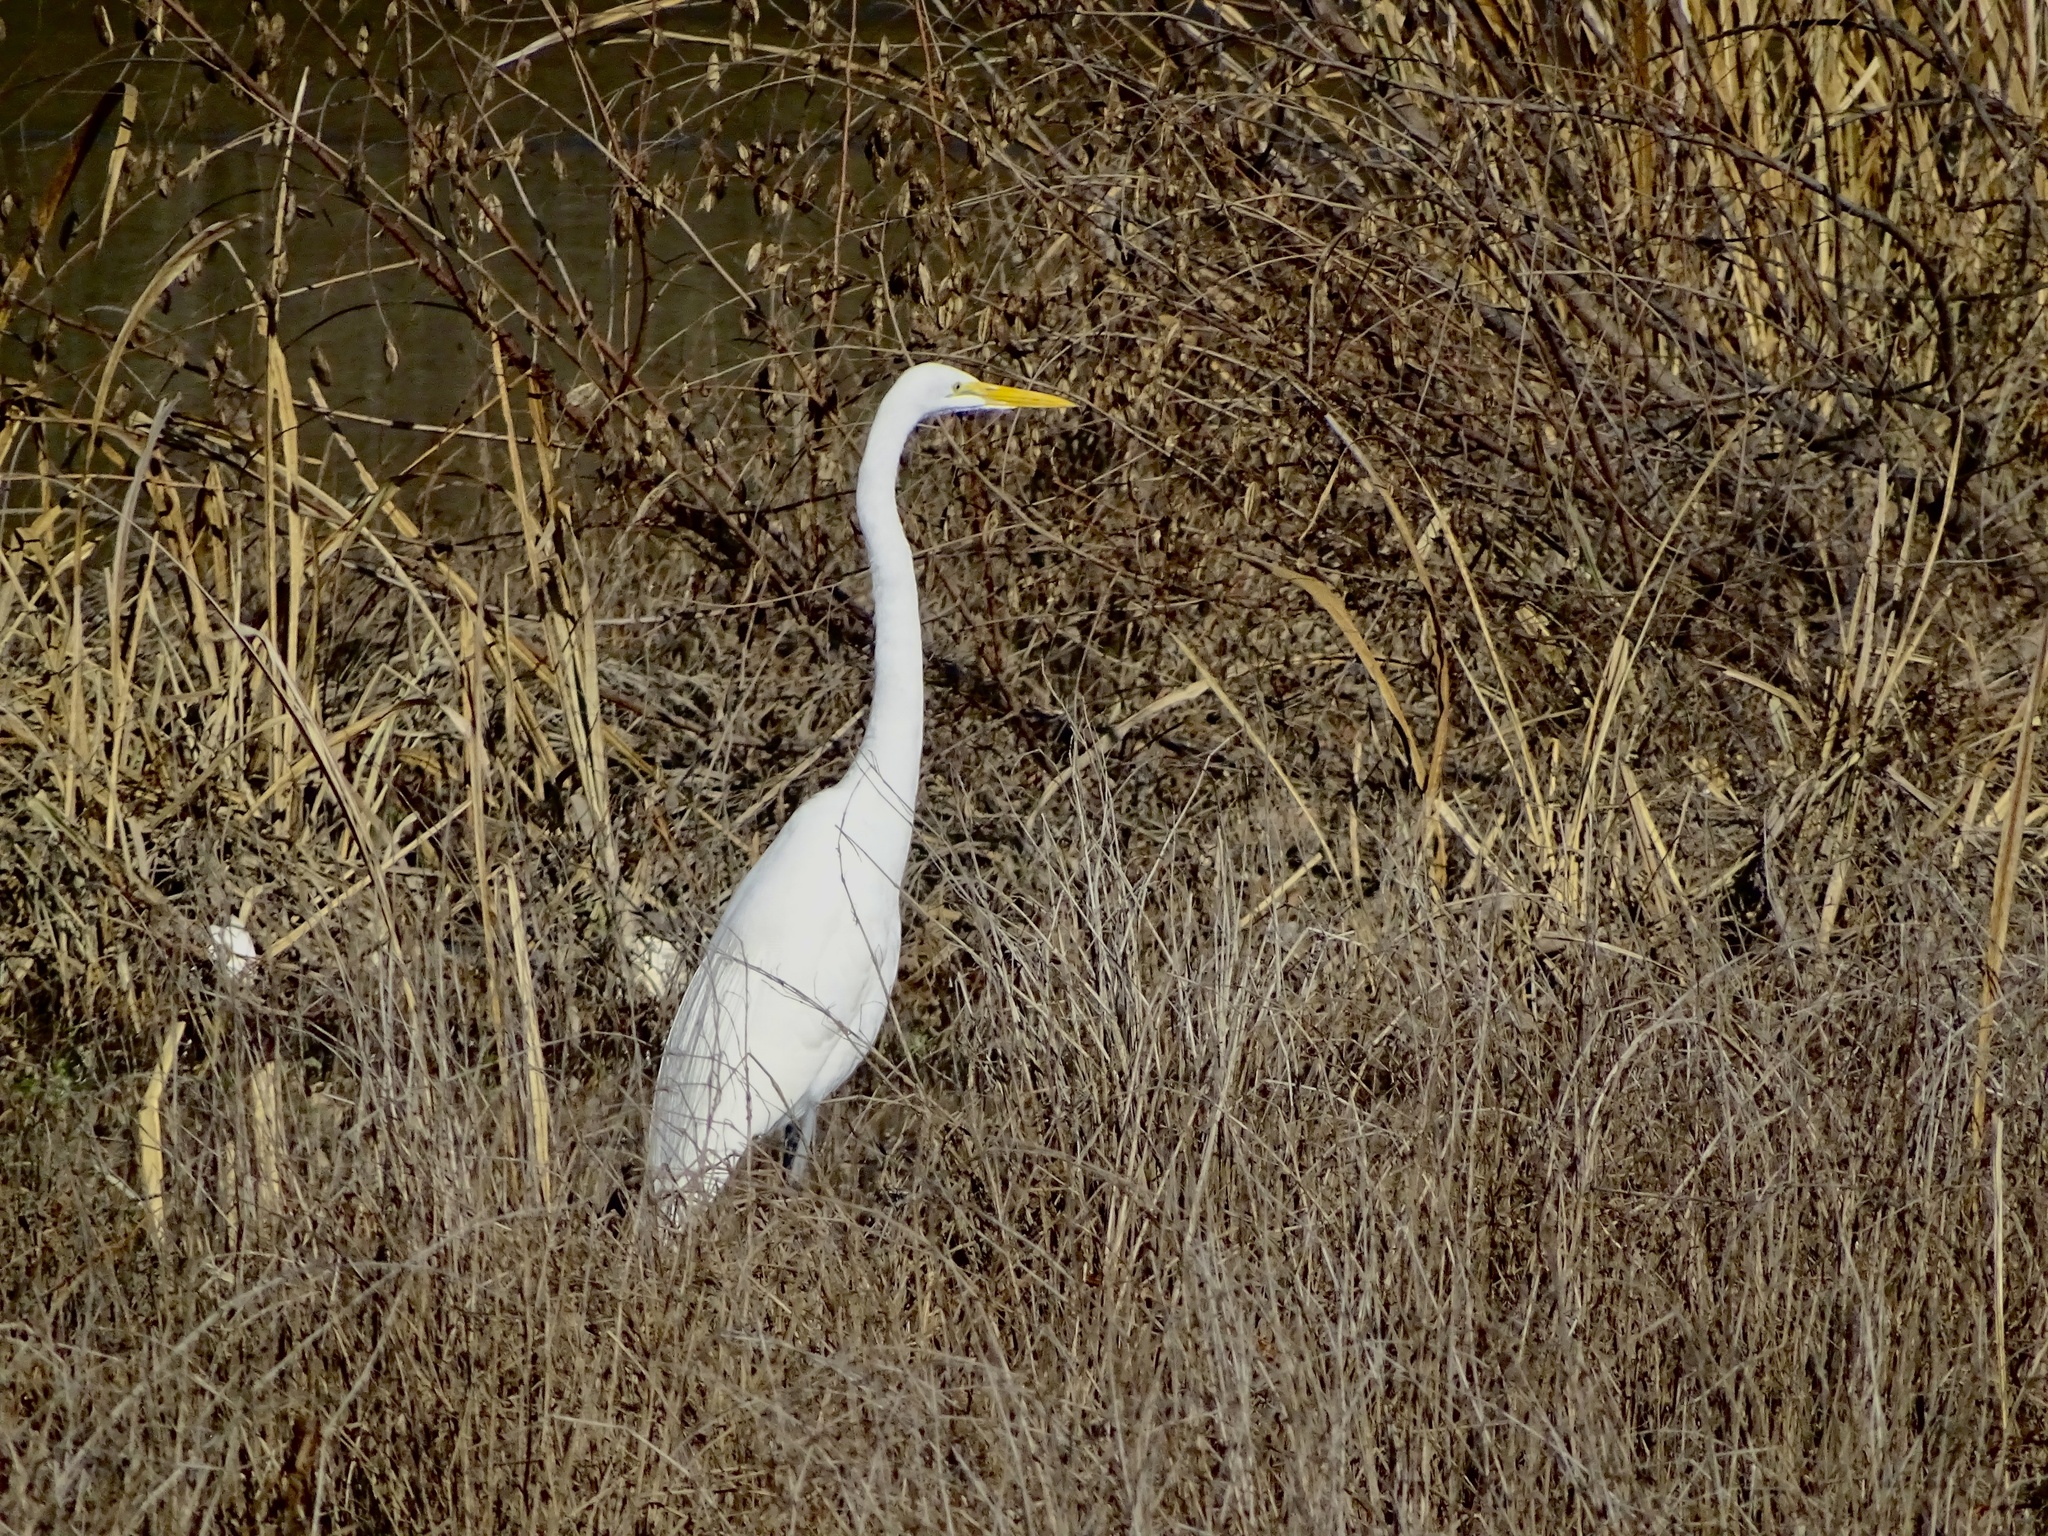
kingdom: Animalia
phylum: Chordata
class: Aves
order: Pelecaniformes
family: Ardeidae
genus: Ardea
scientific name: Ardea alba
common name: Great egret
